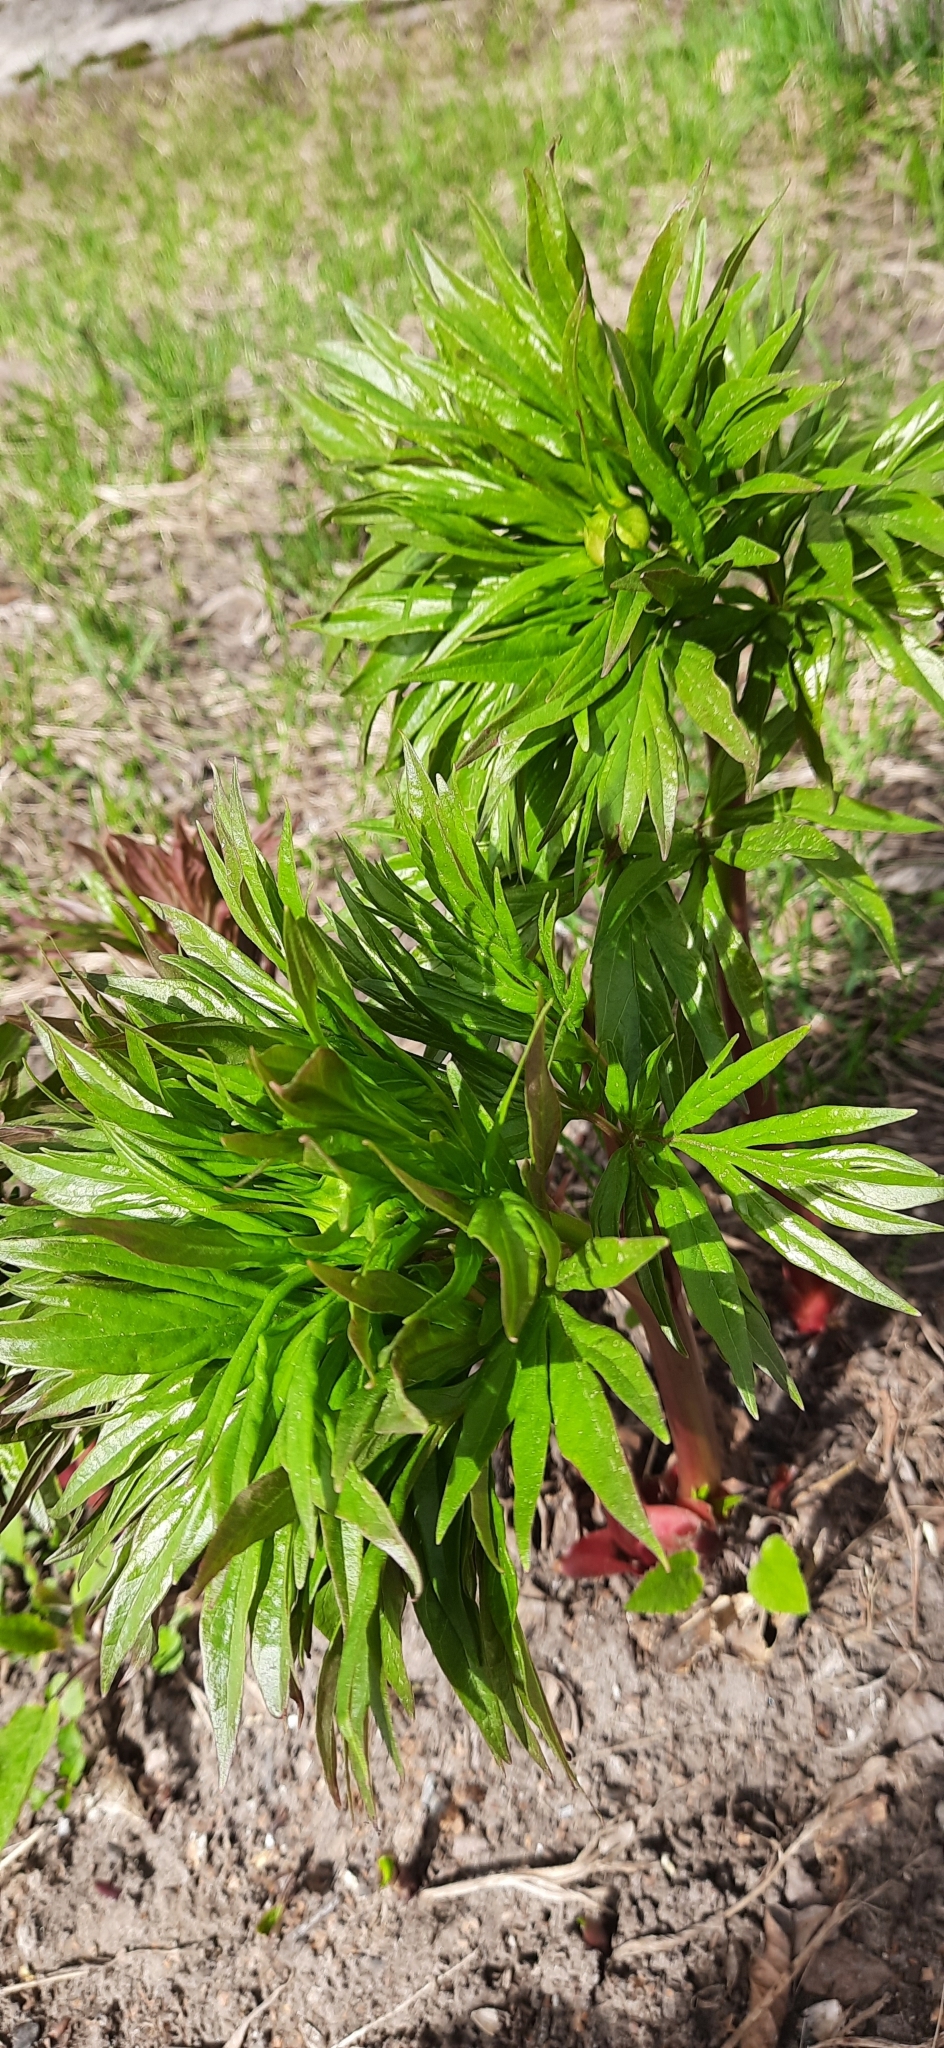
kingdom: Plantae
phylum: Tracheophyta
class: Magnoliopsida
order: Saxifragales
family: Paeoniaceae
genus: Paeonia
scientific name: Paeonia anomala
